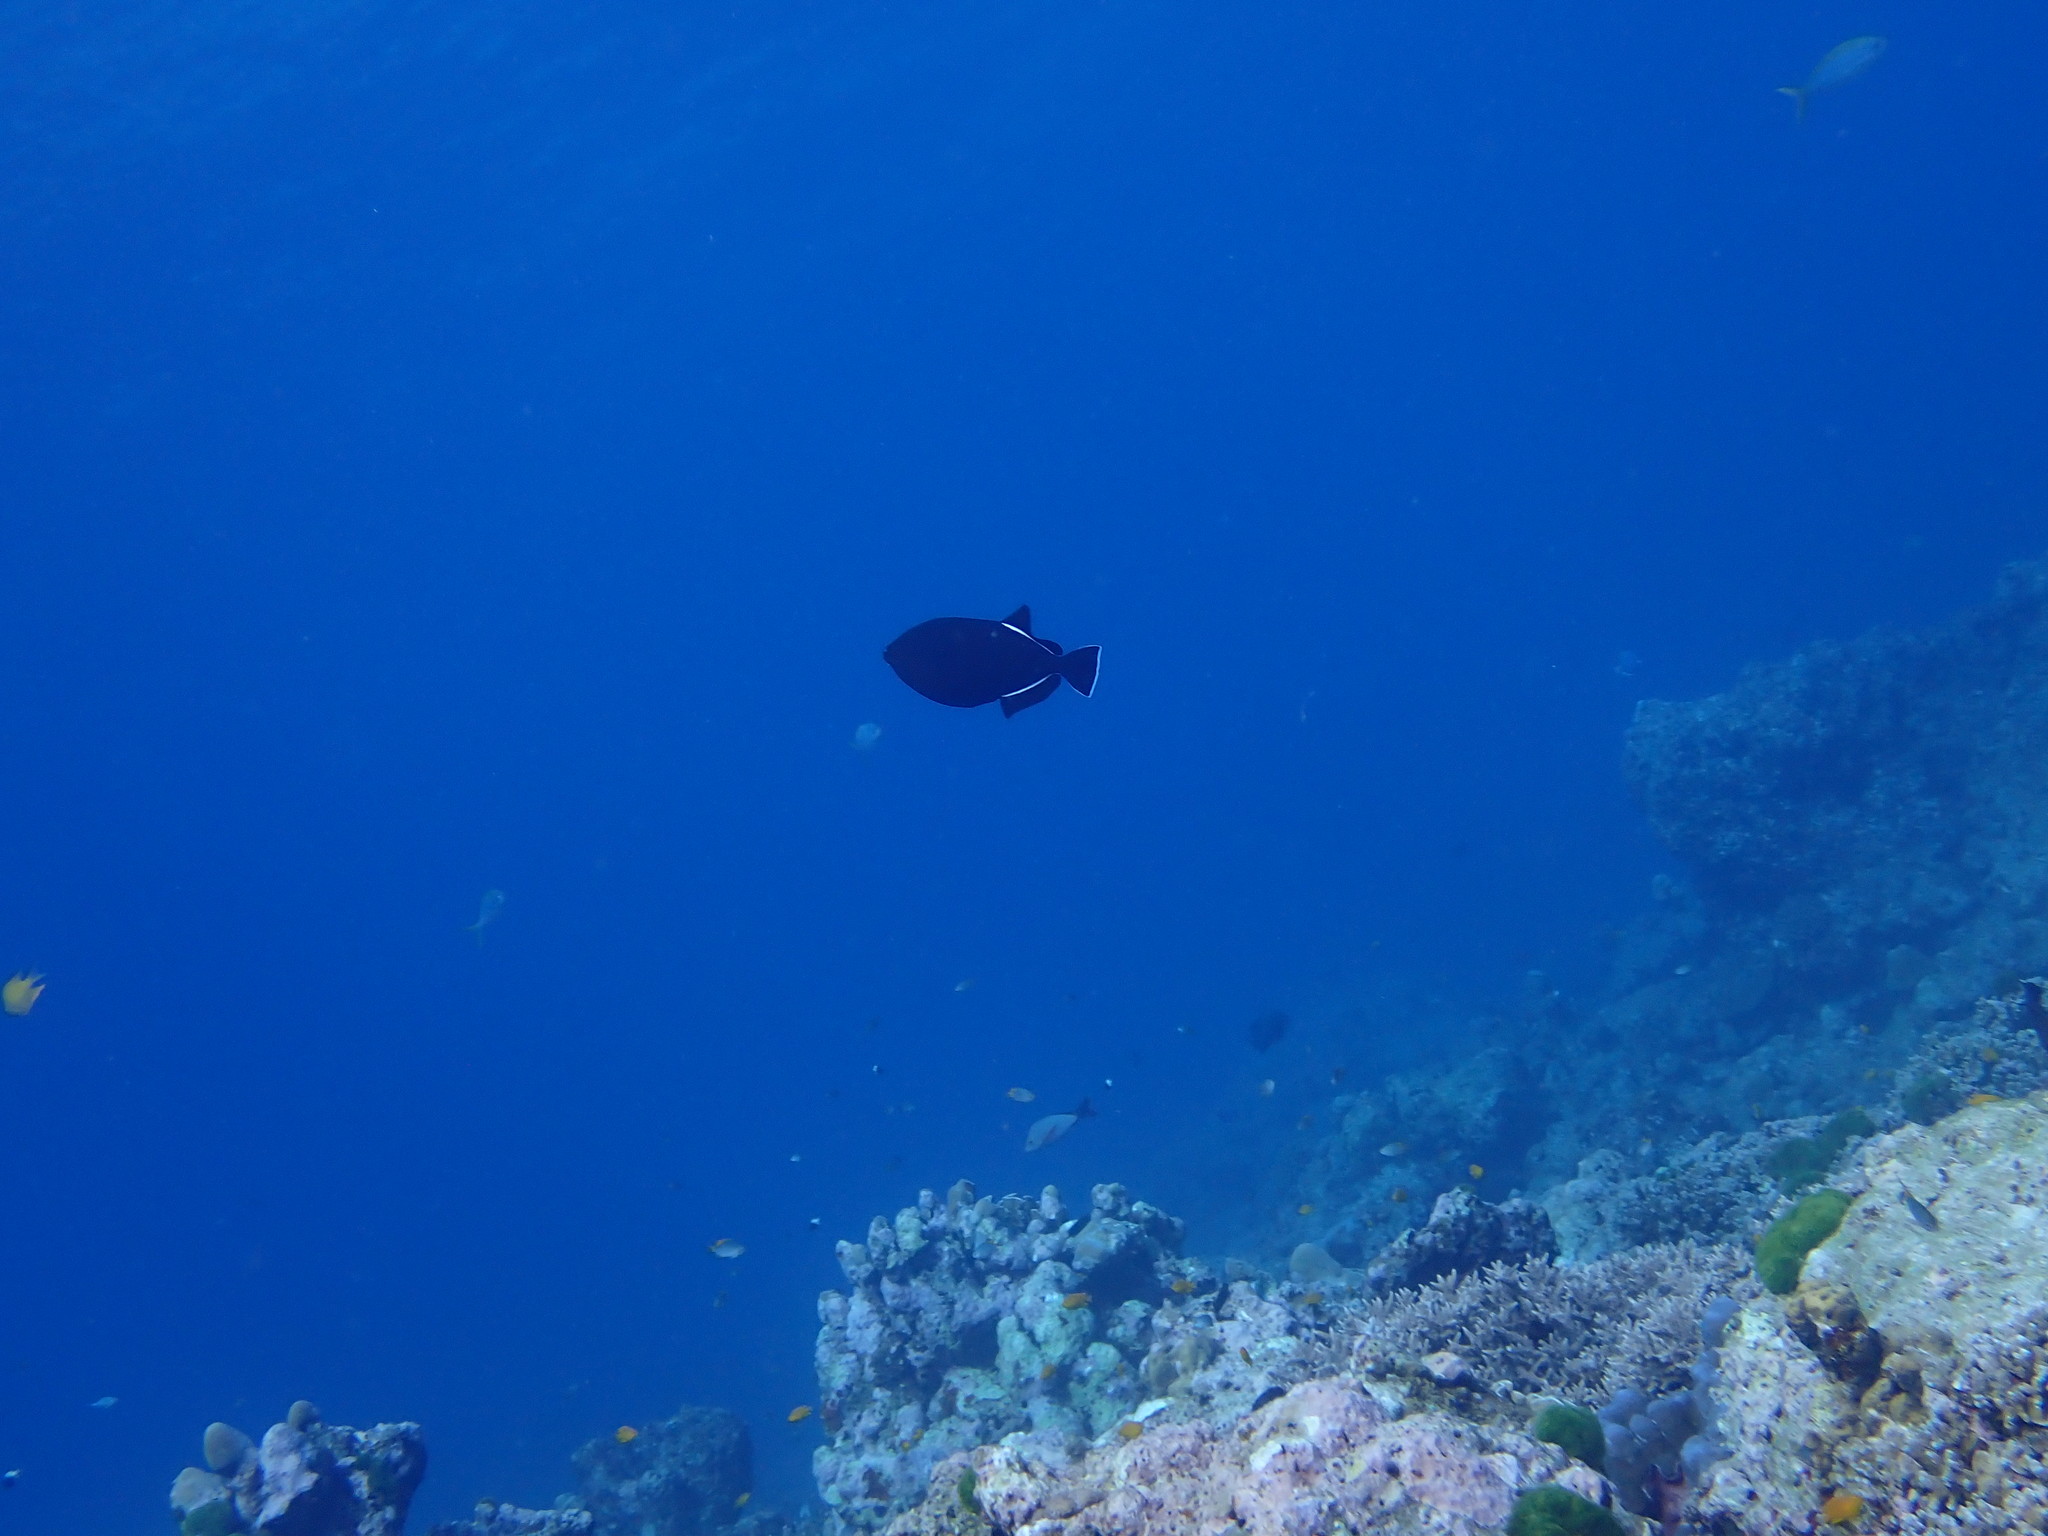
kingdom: Animalia
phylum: Chordata
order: Tetraodontiformes
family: Balistidae
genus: Melichthys
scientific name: Melichthys indicus
